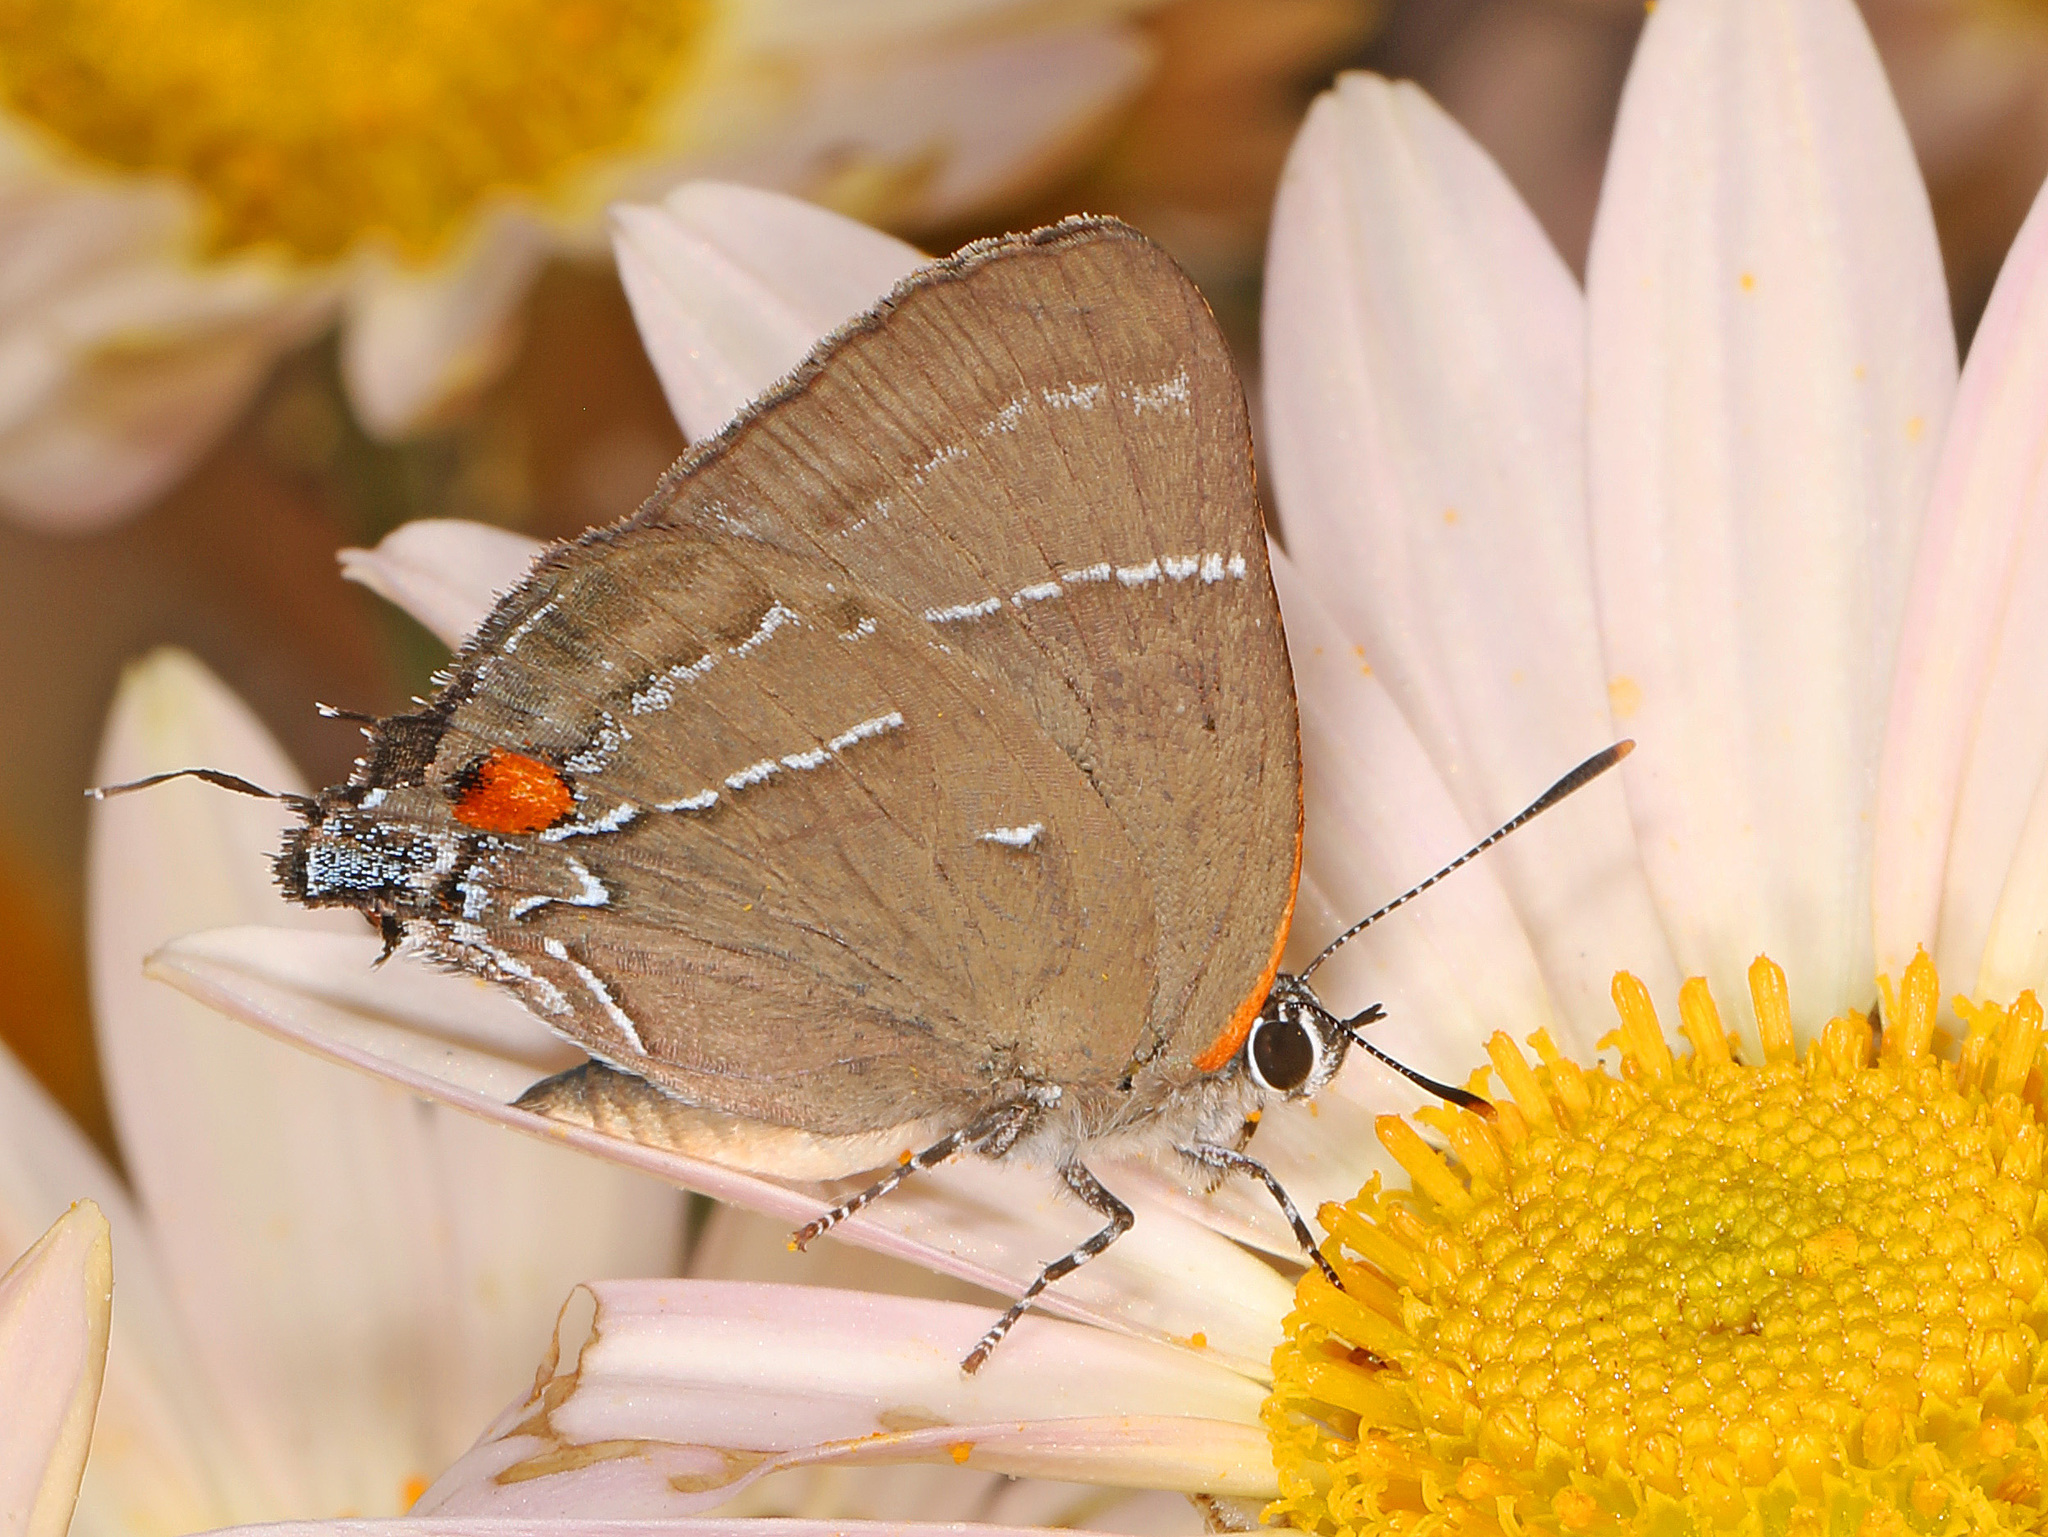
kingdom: Animalia
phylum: Arthropoda
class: Insecta
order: Lepidoptera
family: Lycaenidae
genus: Parrhasius
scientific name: Parrhasius m-album
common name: White m hairstreak
